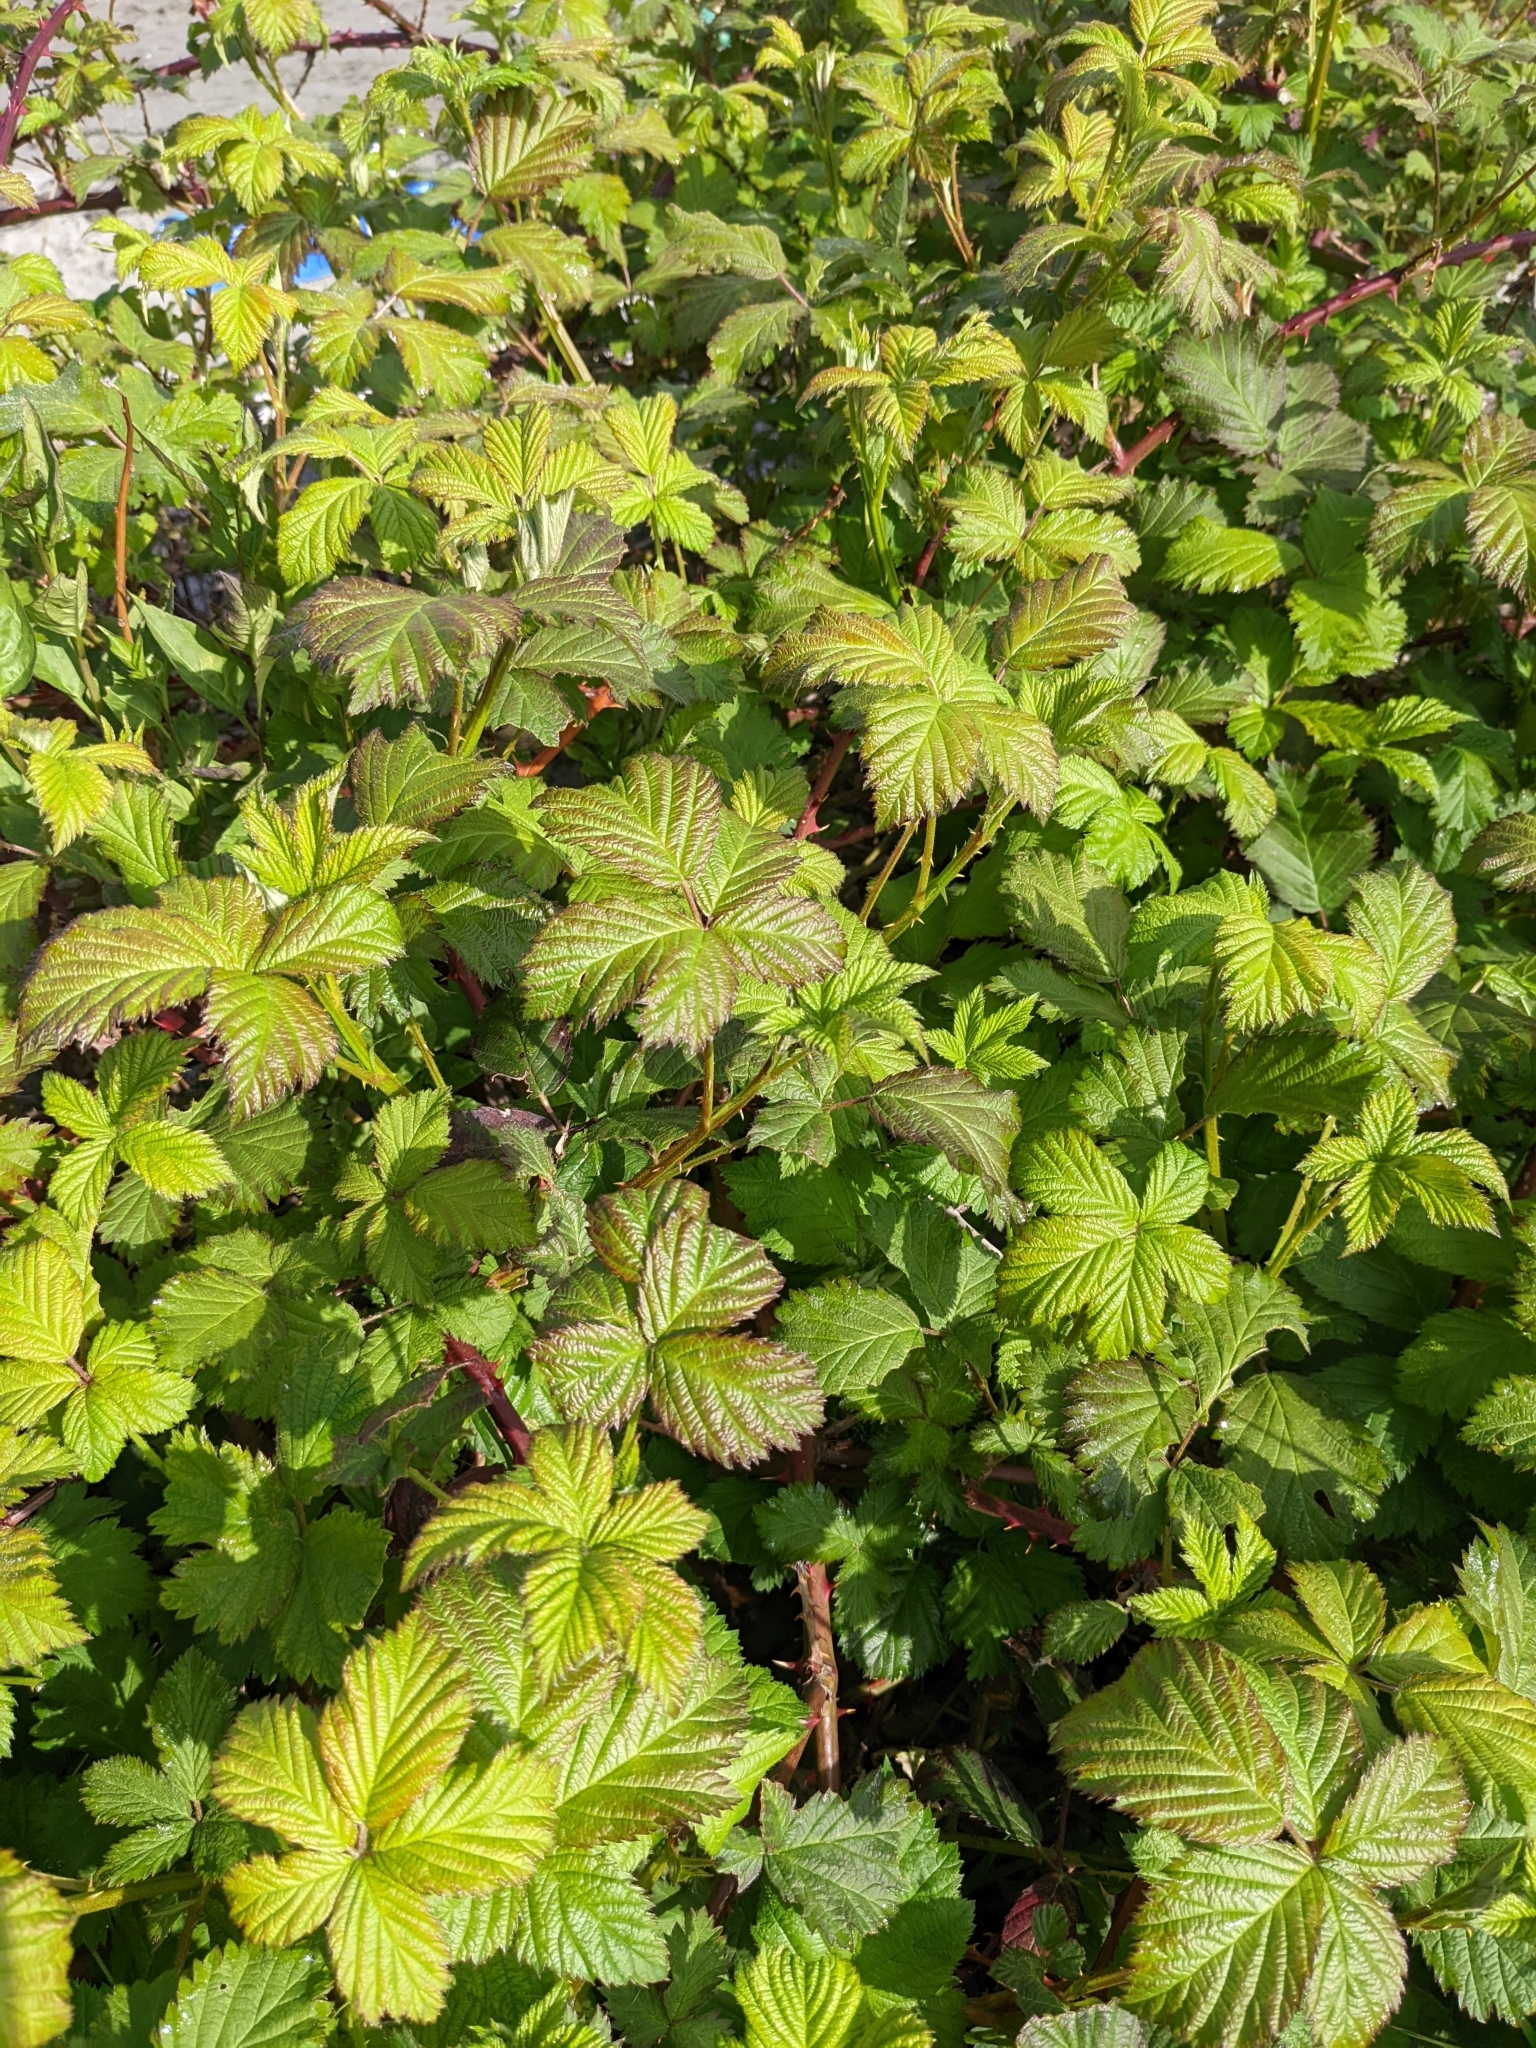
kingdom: Plantae
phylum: Tracheophyta
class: Magnoliopsida
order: Rosales
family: Rosaceae
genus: Rubus
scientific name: Rubus bifrons
